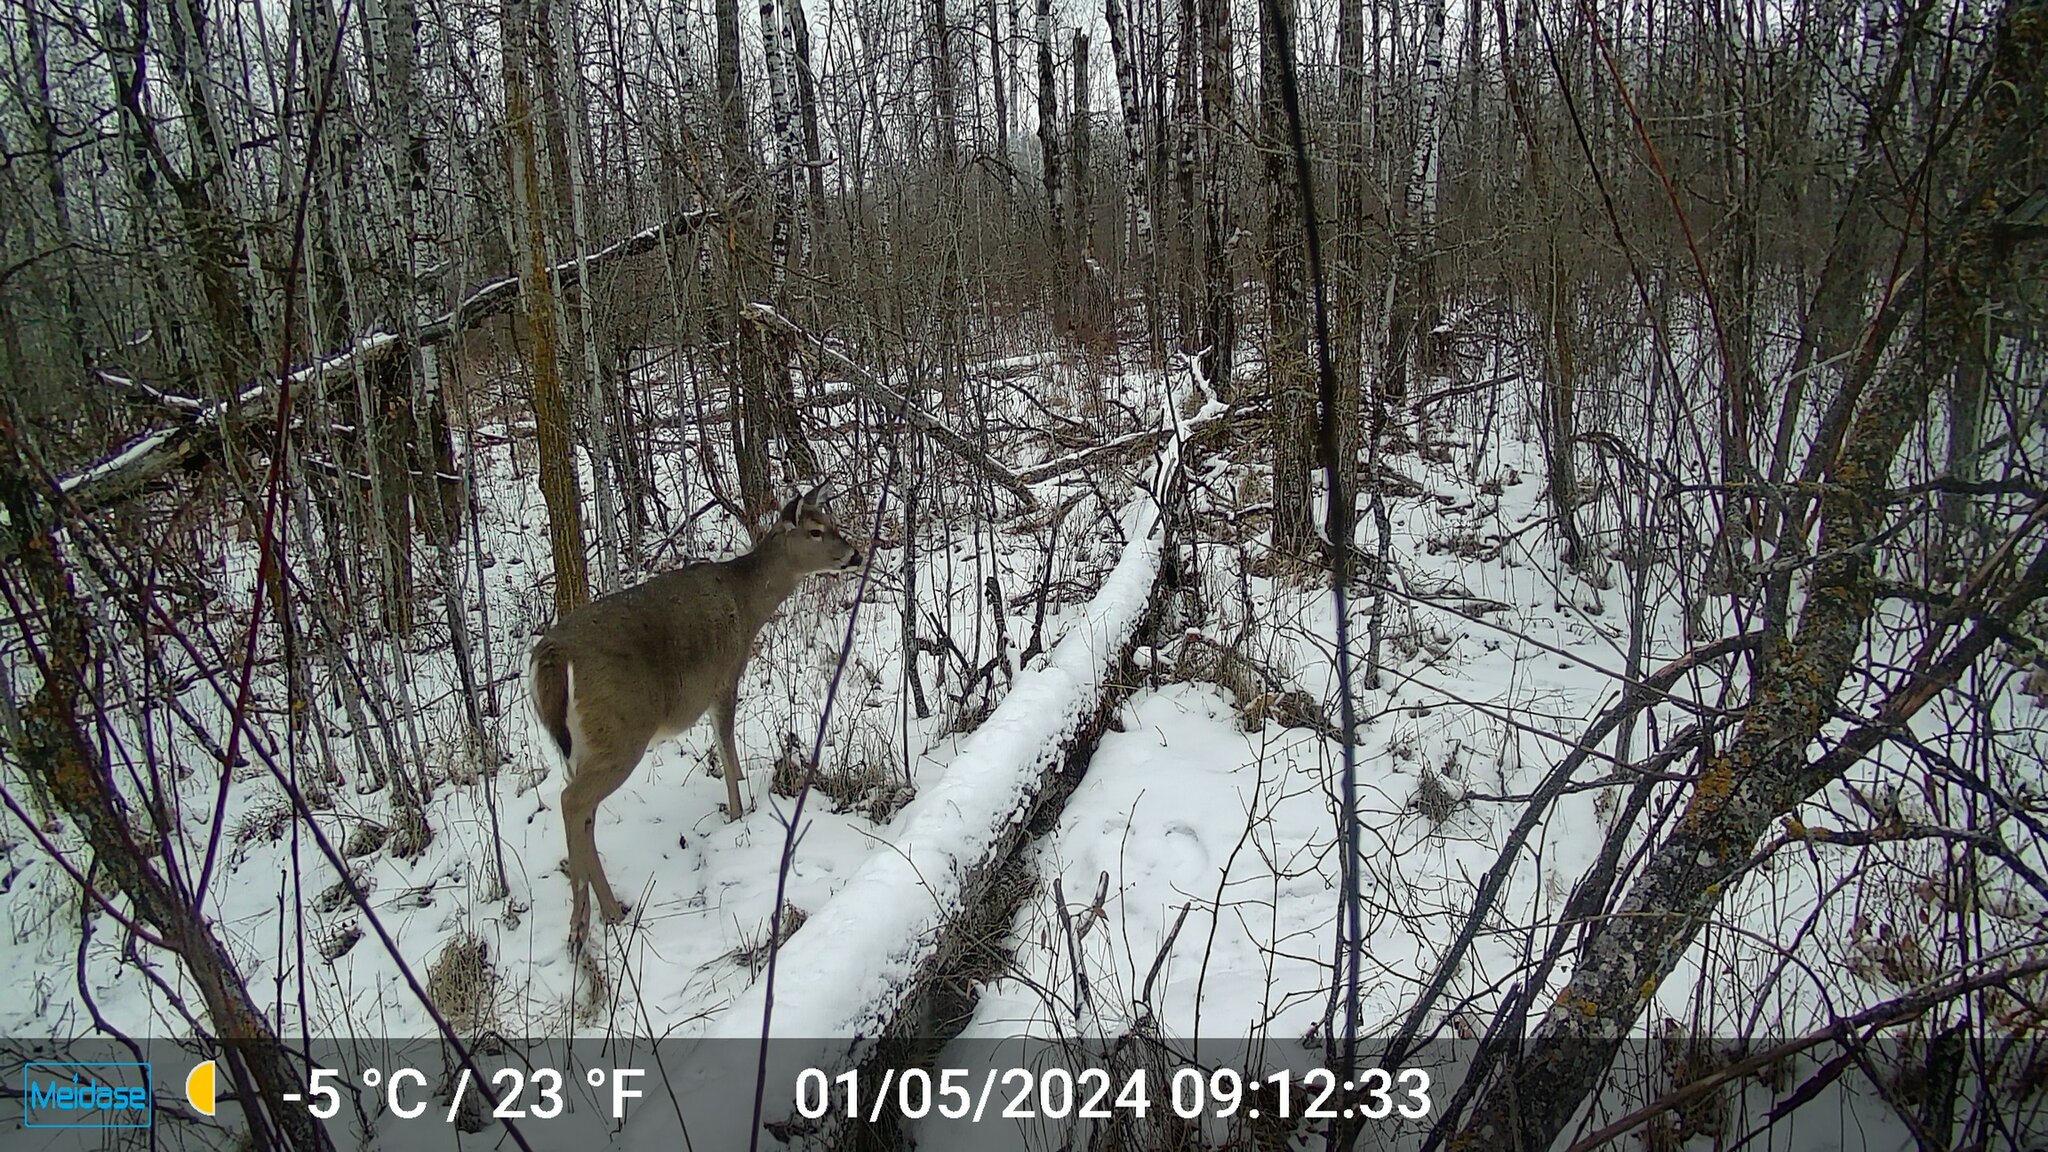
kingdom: Animalia
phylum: Chordata
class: Mammalia
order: Artiodactyla
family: Cervidae
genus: Odocoileus
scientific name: Odocoileus virginianus
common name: White-tailed deer
